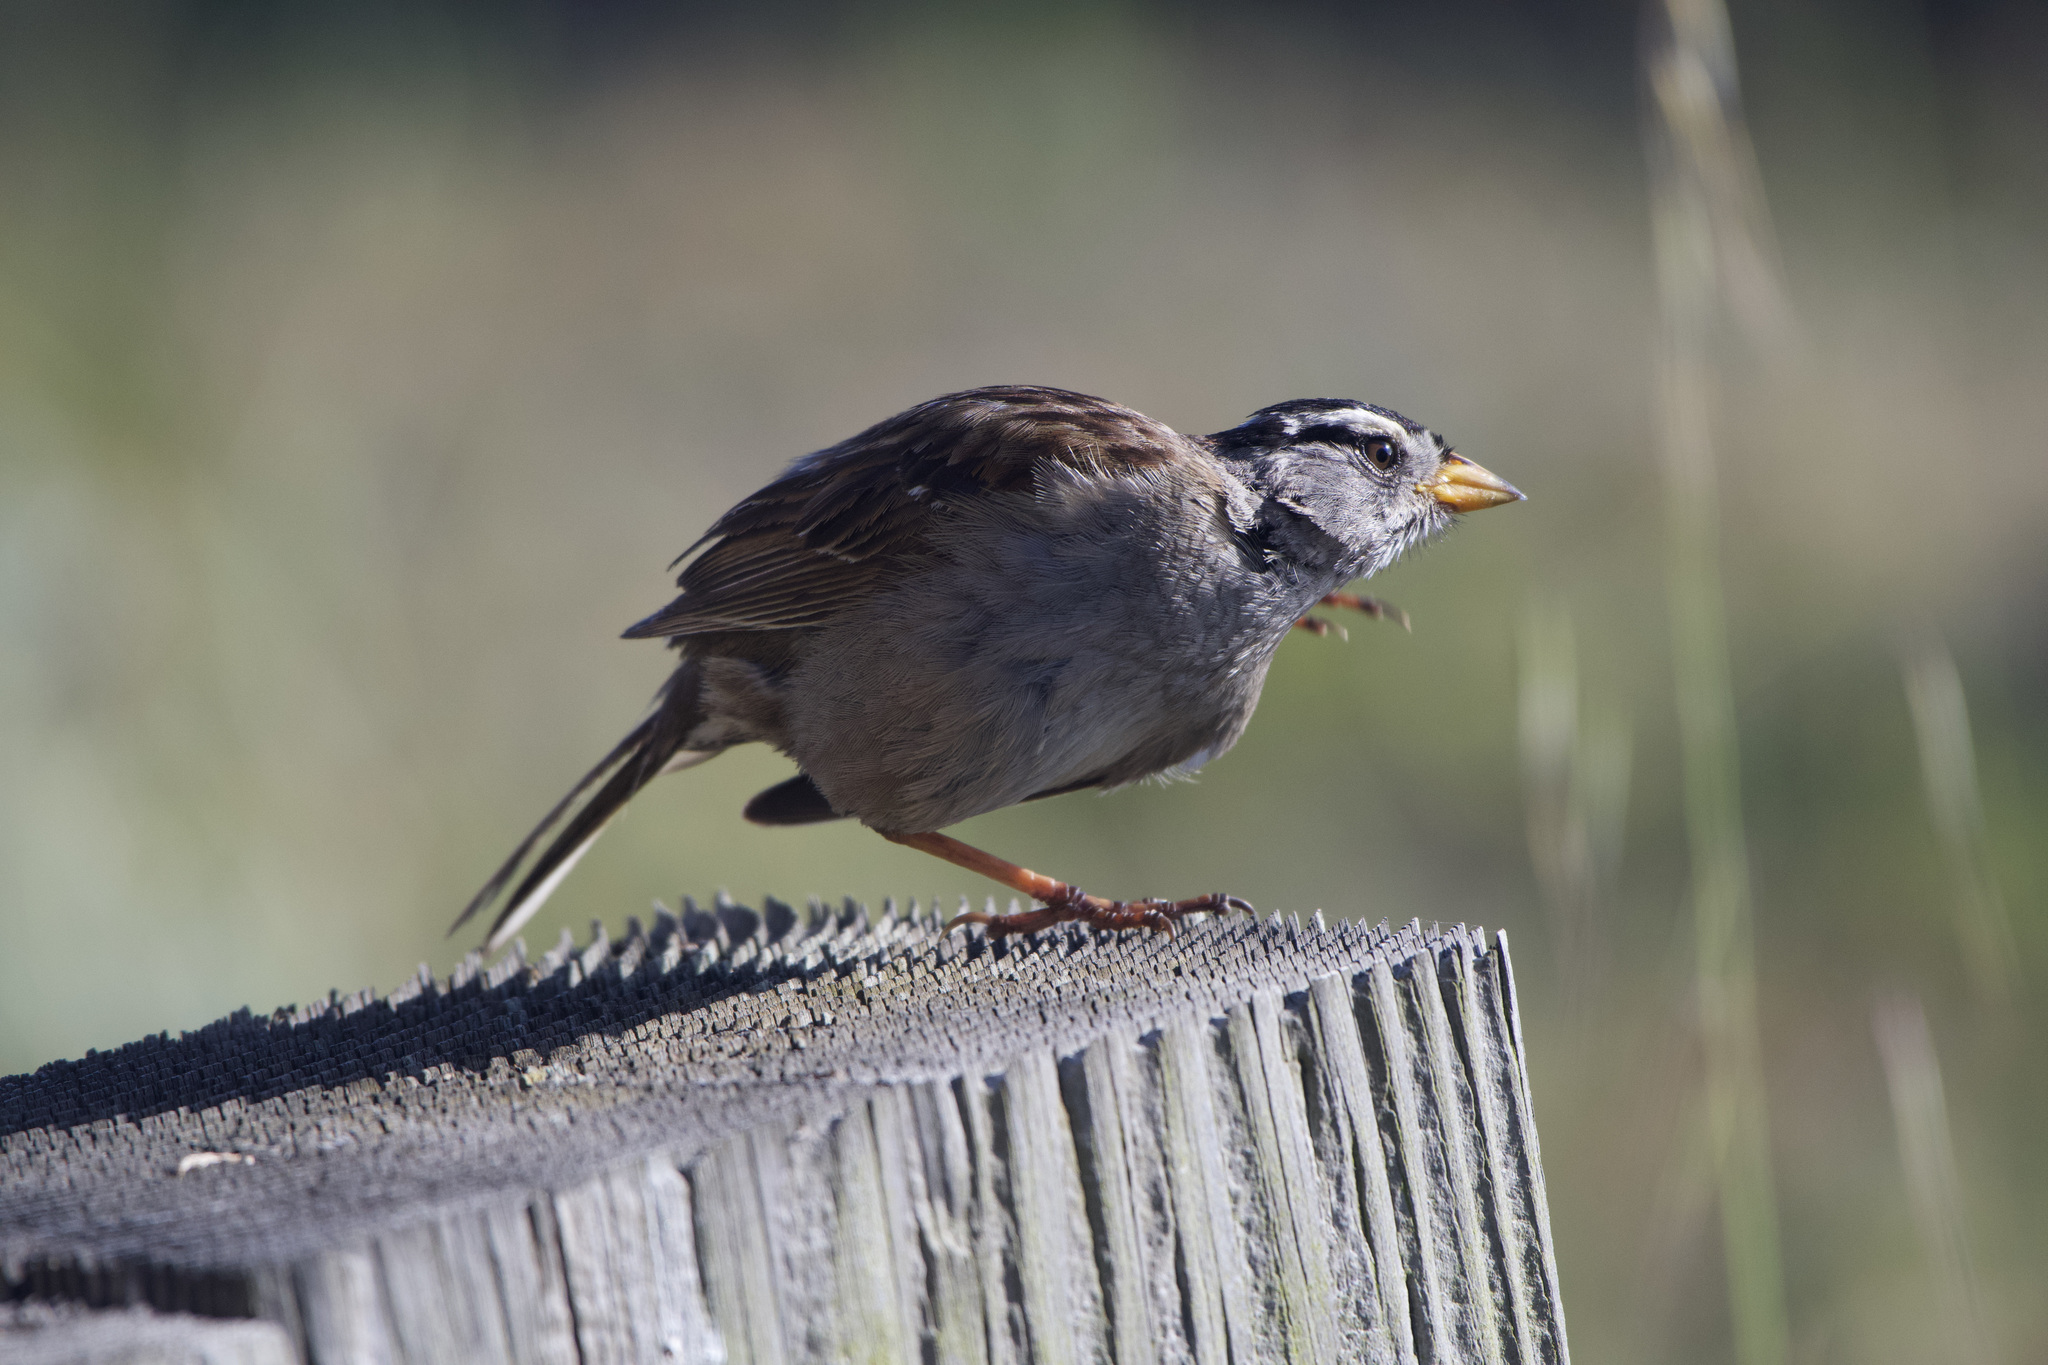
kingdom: Animalia
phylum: Chordata
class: Aves
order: Passeriformes
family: Passerellidae
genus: Zonotrichia
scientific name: Zonotrichia leucophrys
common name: White-crowned sparrow
